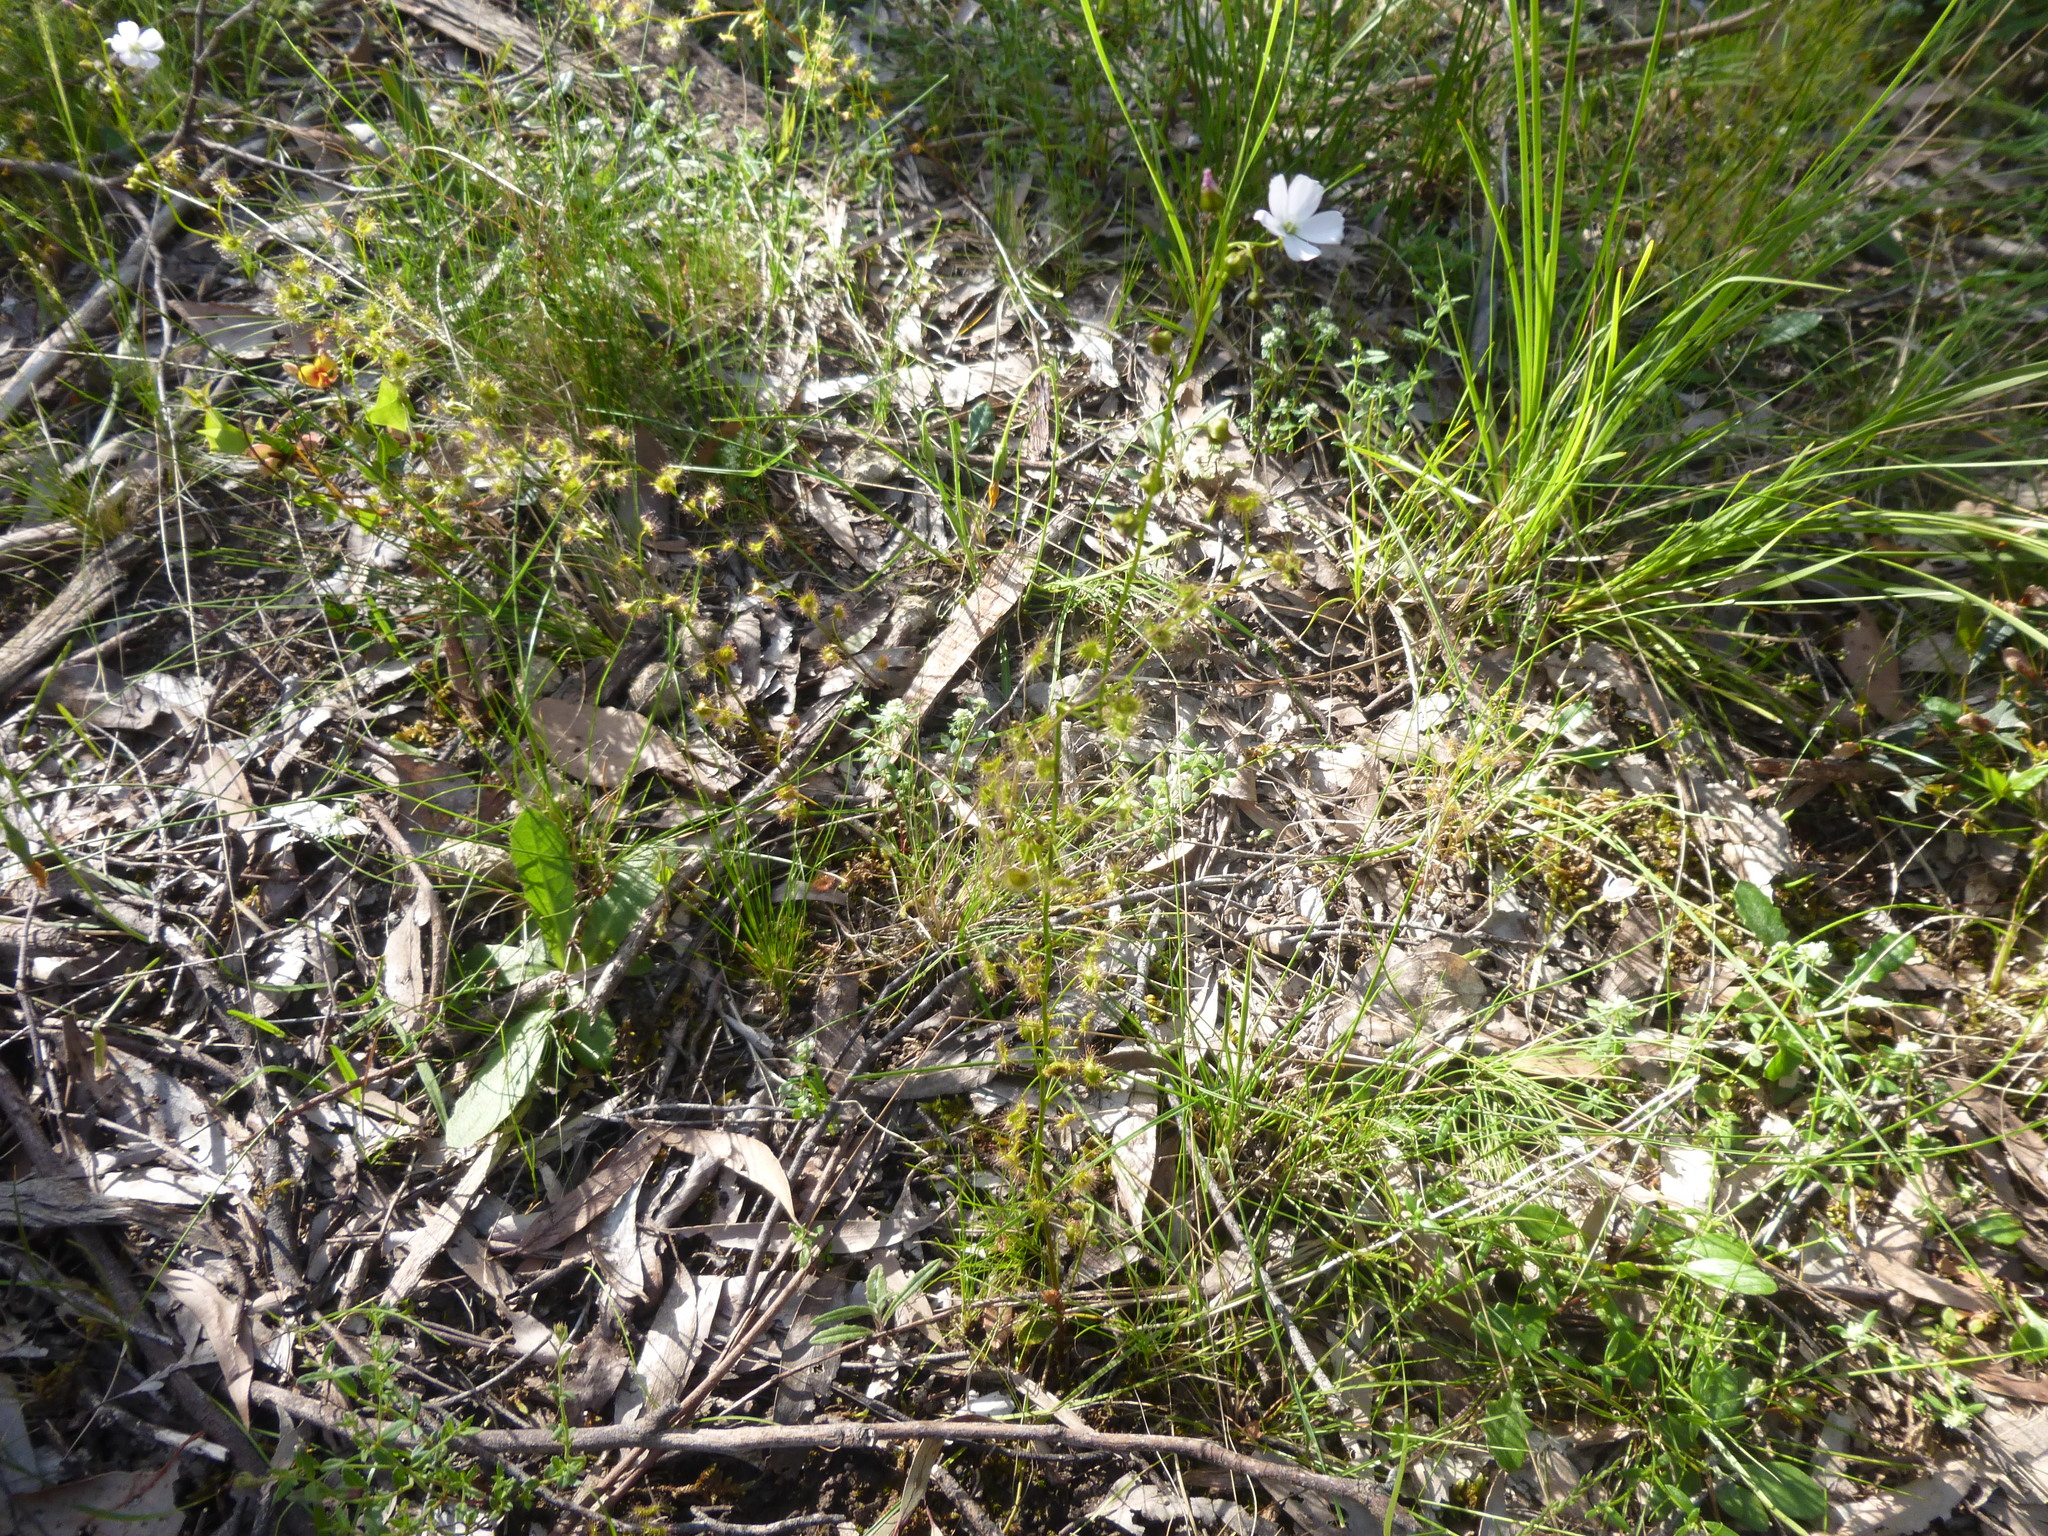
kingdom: Plantae
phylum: Tracheophyta
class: Magnoliopsida
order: Caryophyllales
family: Droseraceae
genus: Drosera
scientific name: Drosera peltata
